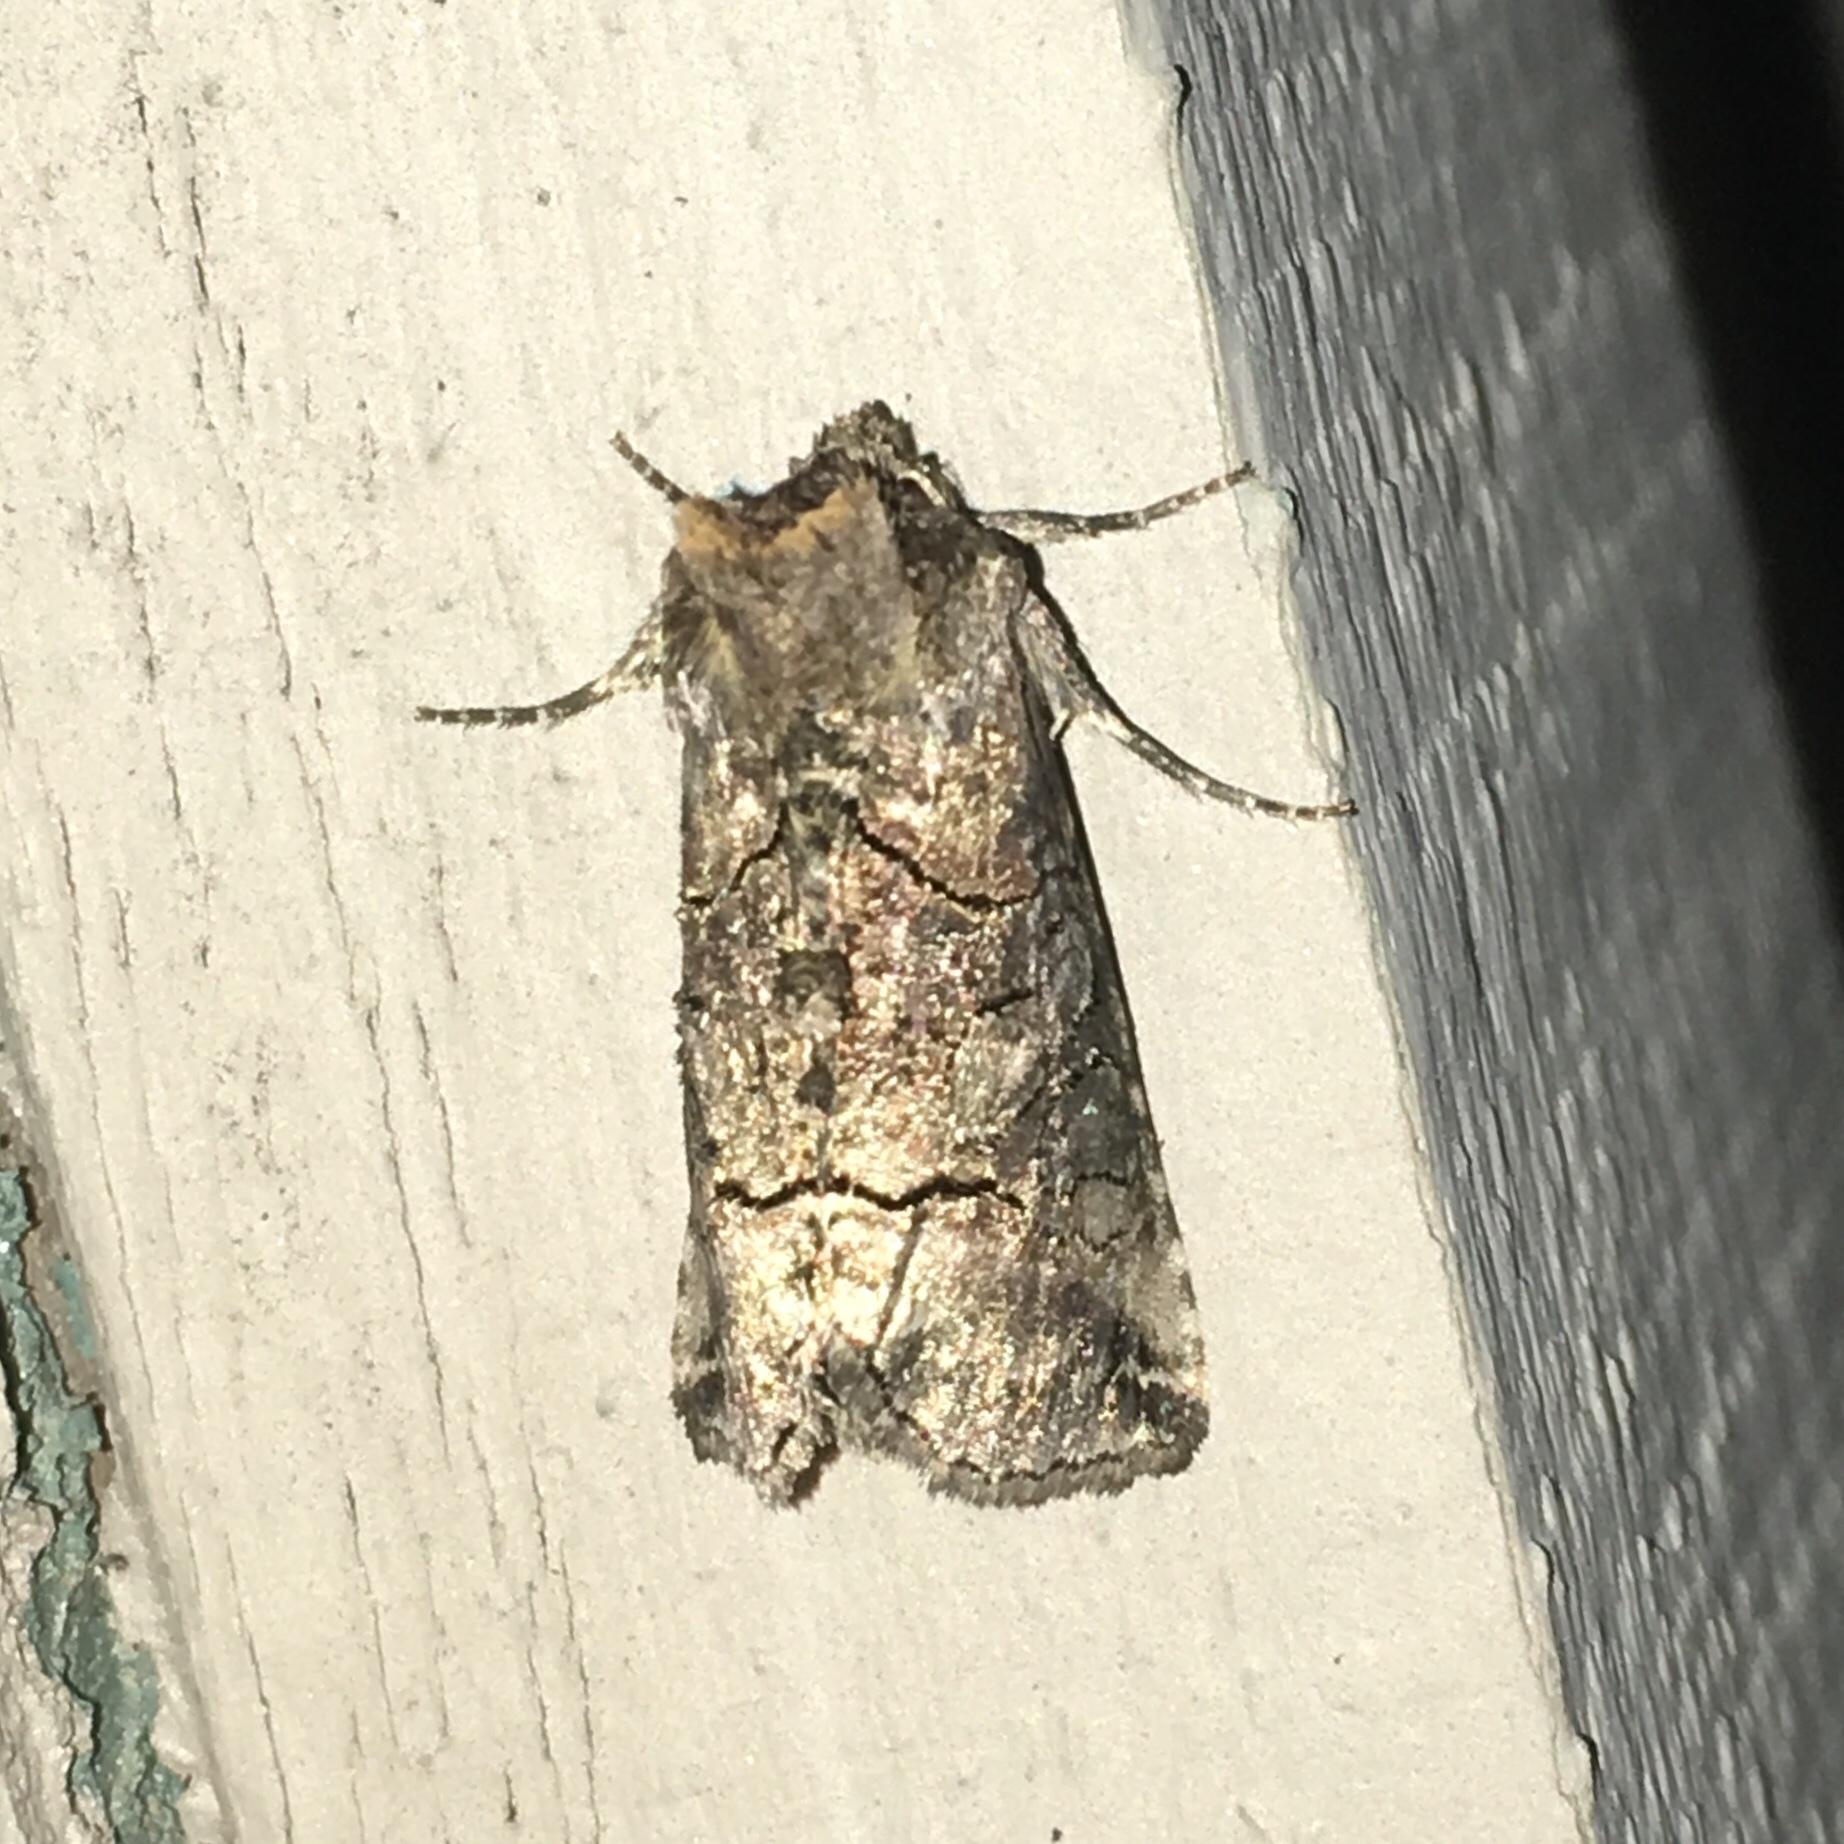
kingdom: Animalia
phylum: Arthropoda
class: Insecta
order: Lepidoptera
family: Noctuidae
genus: Abrostola
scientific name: Abrostola urentis
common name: Spectacled nettle moth
